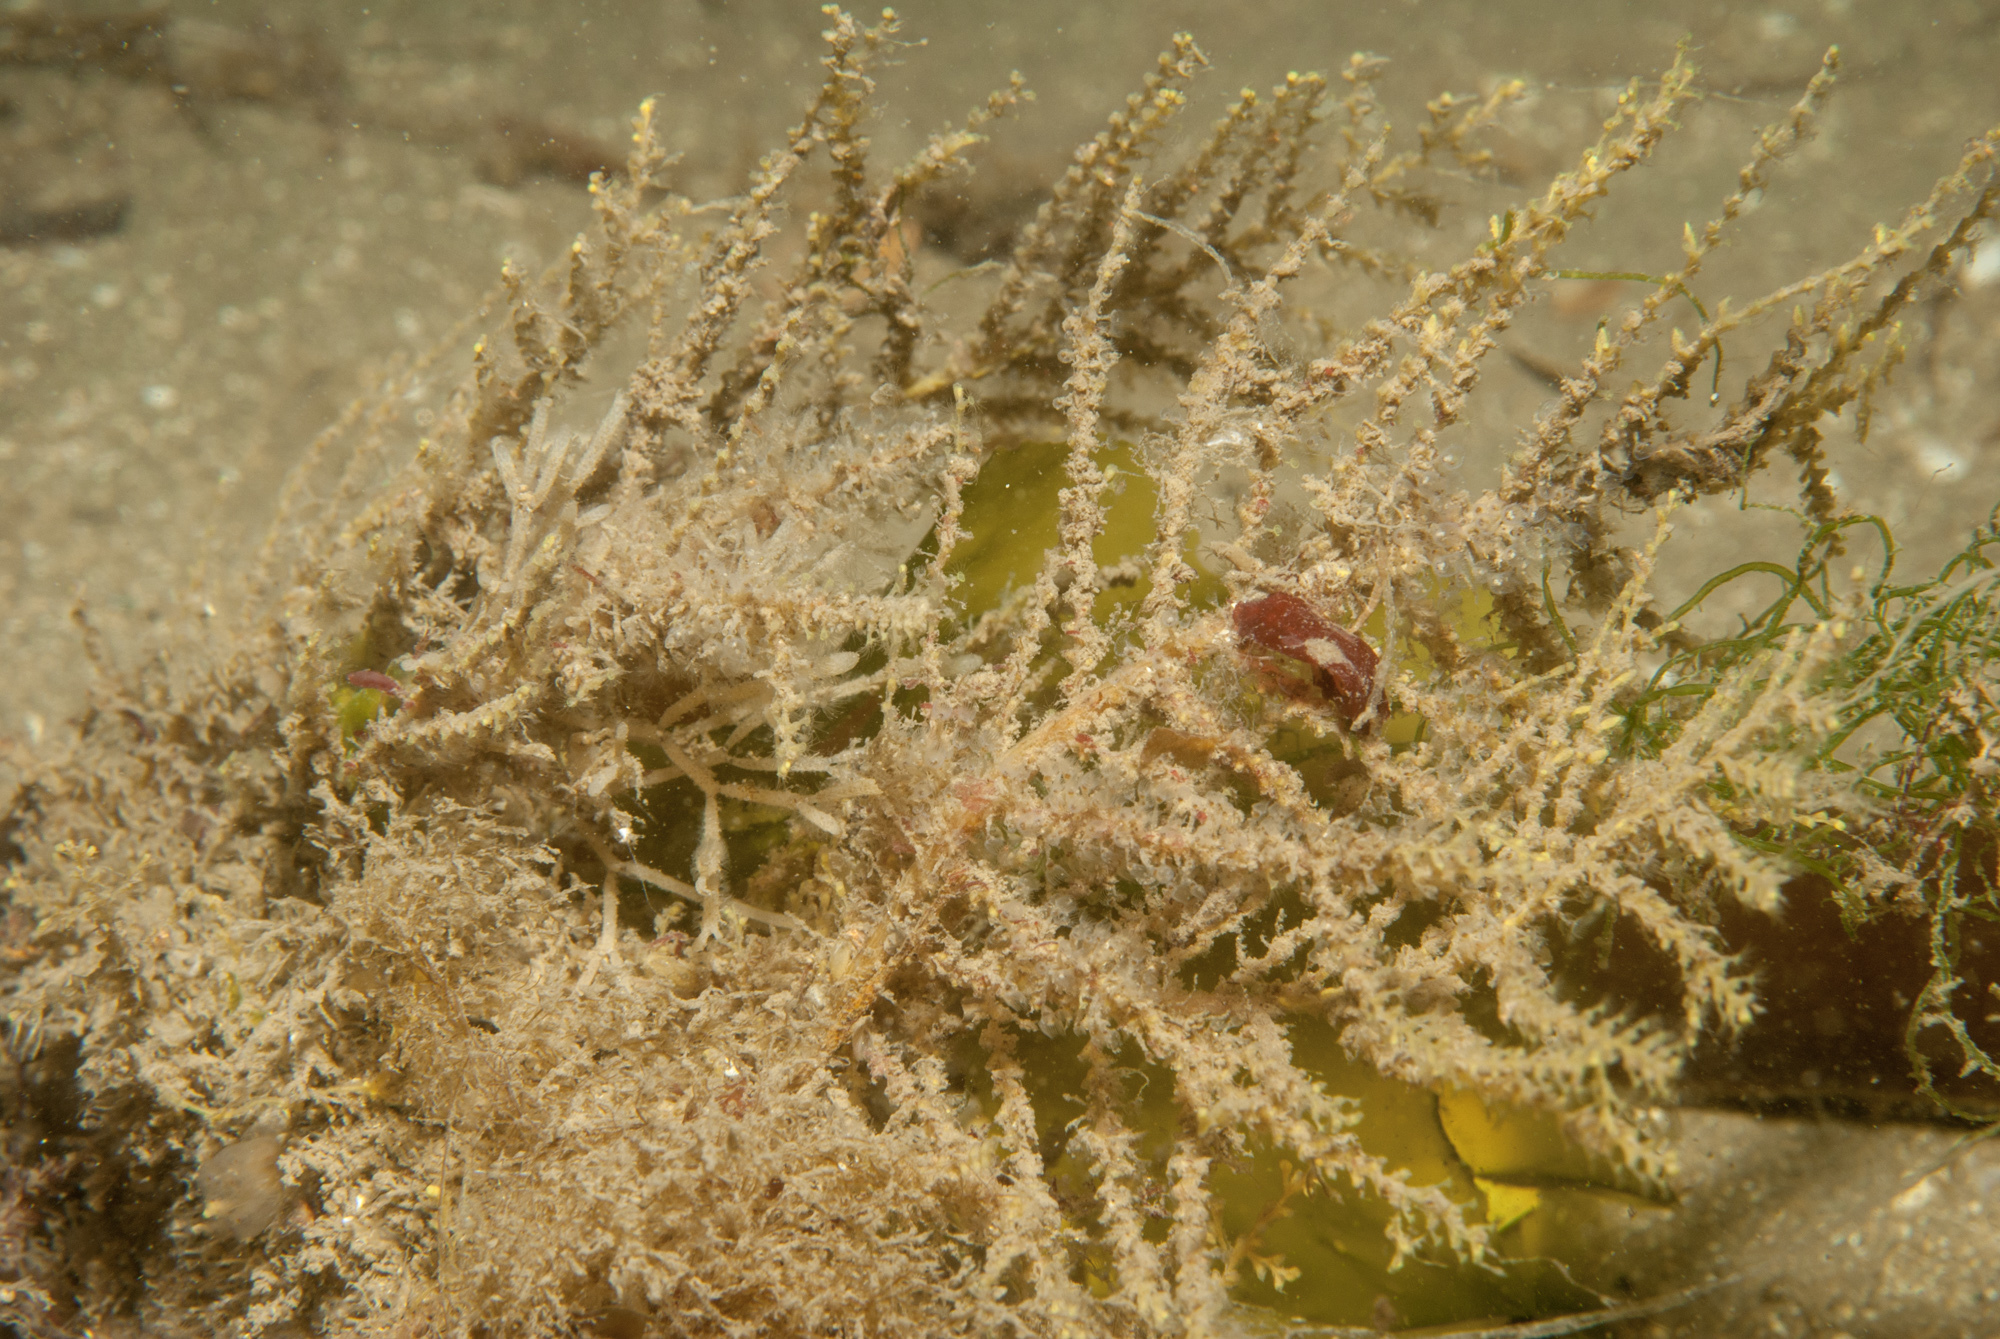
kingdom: Animalia
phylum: Cnidaria
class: Hydrozoa
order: Leptothecata
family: Sertularellidae
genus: Sertularella
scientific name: Sertularella gayi
